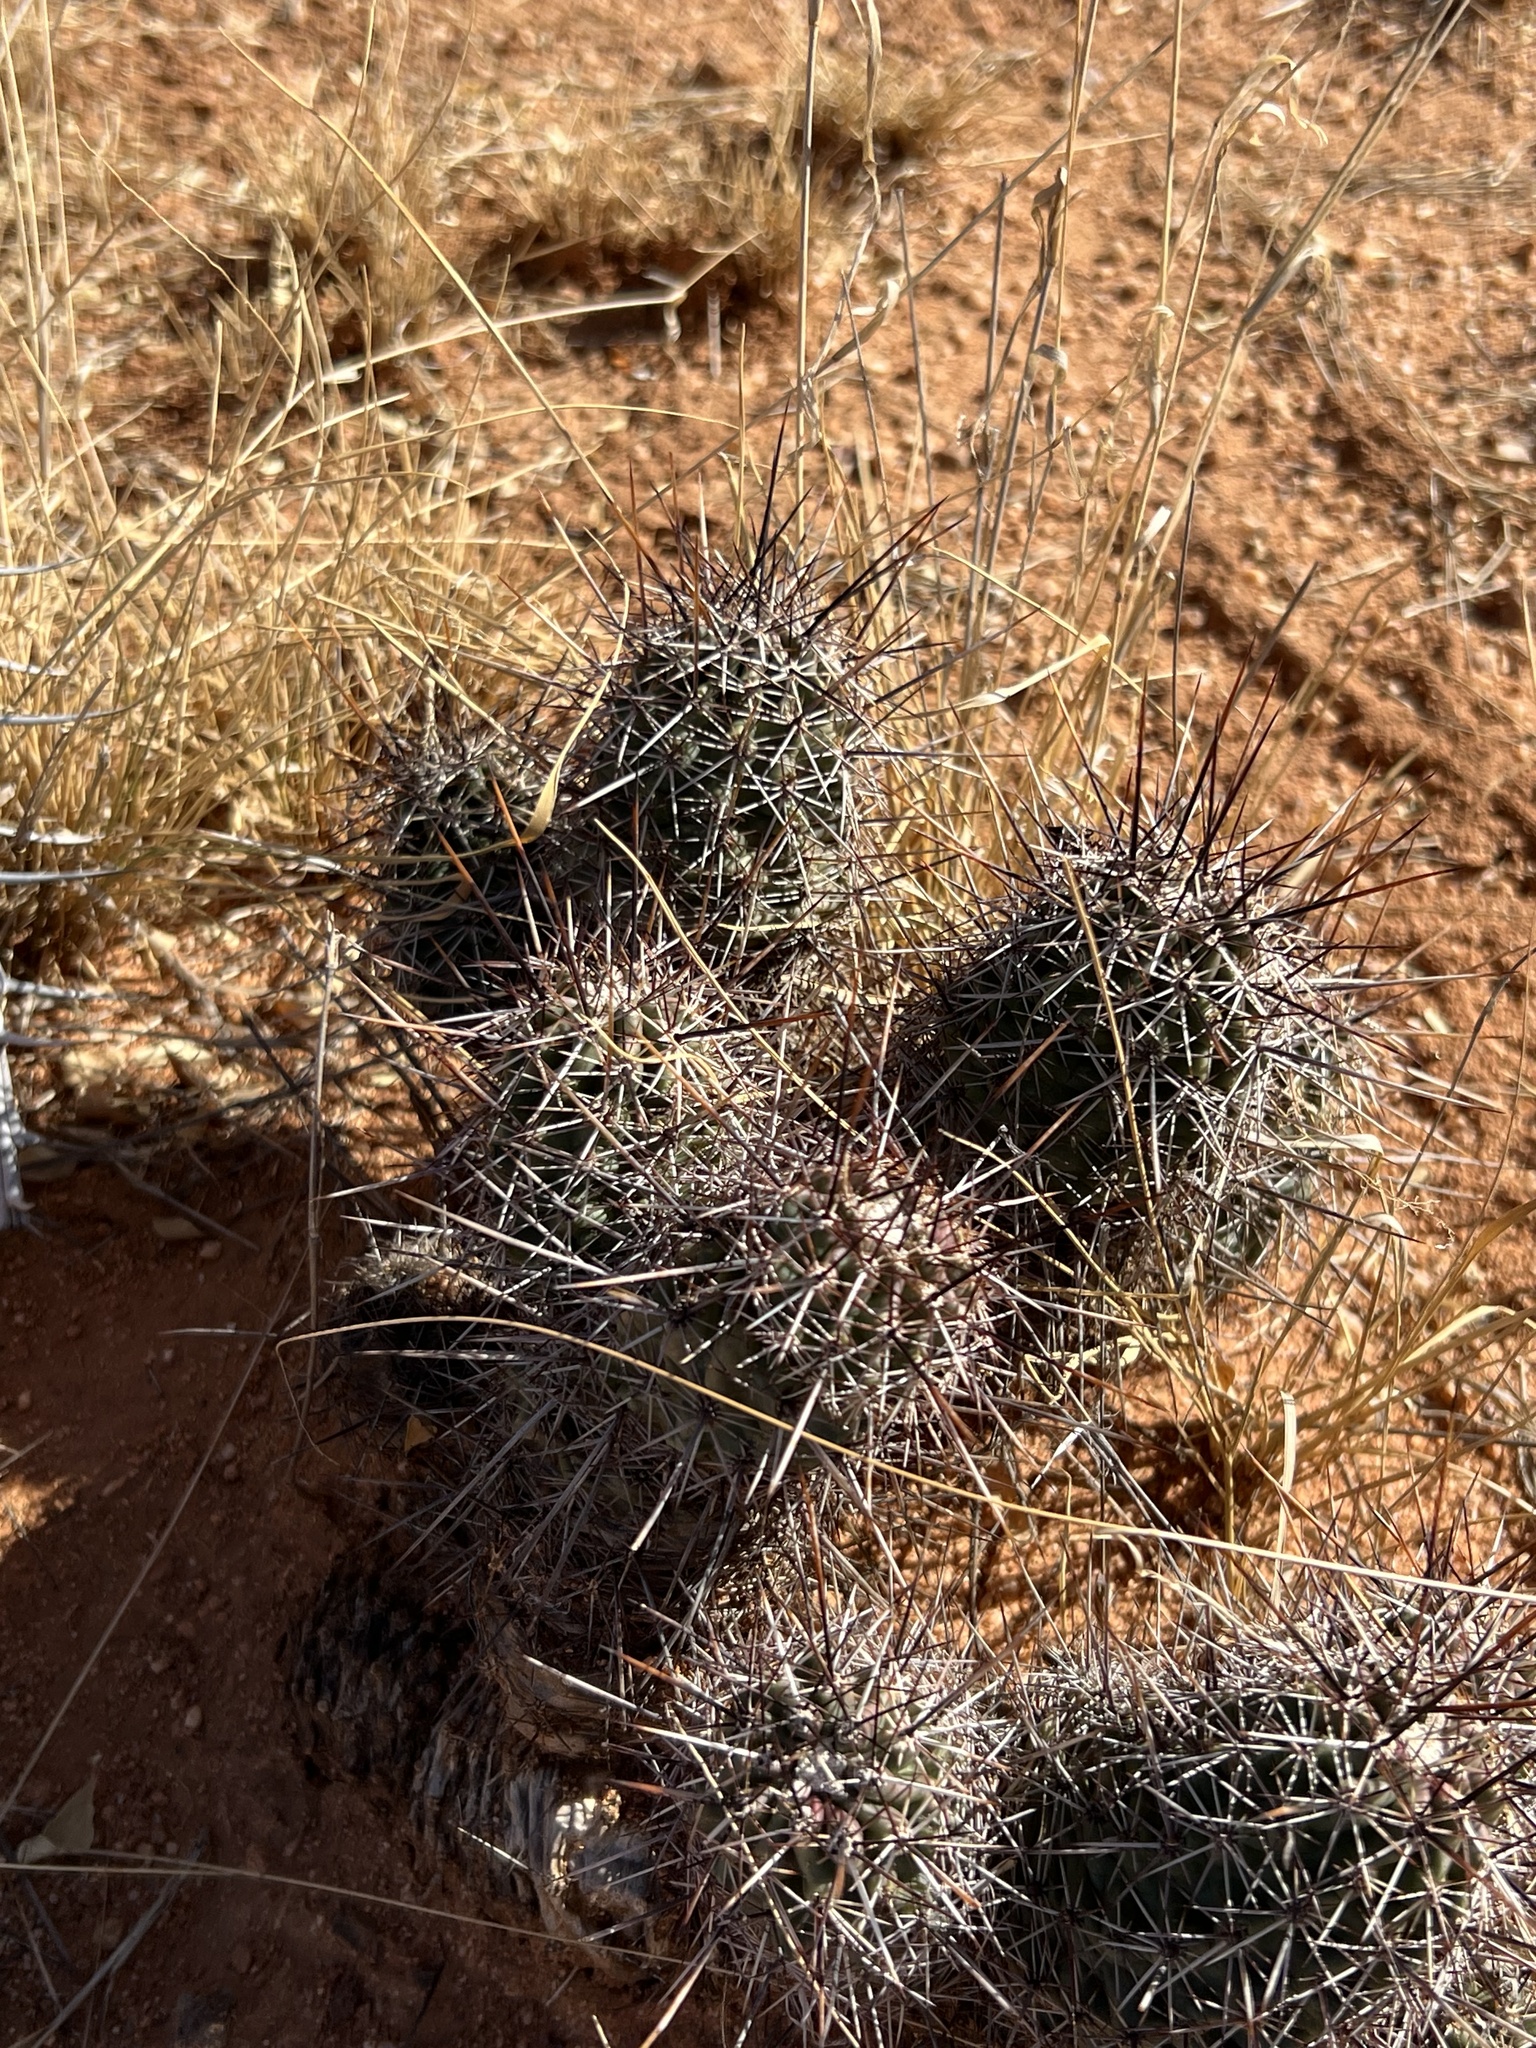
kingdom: Plantae
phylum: Tracheophyta
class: Magnoliopsida
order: Caryophyllales
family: Cactaceae
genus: Echinocereus
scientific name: Echinocereus fasciculatus
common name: Bundle hedgehog
